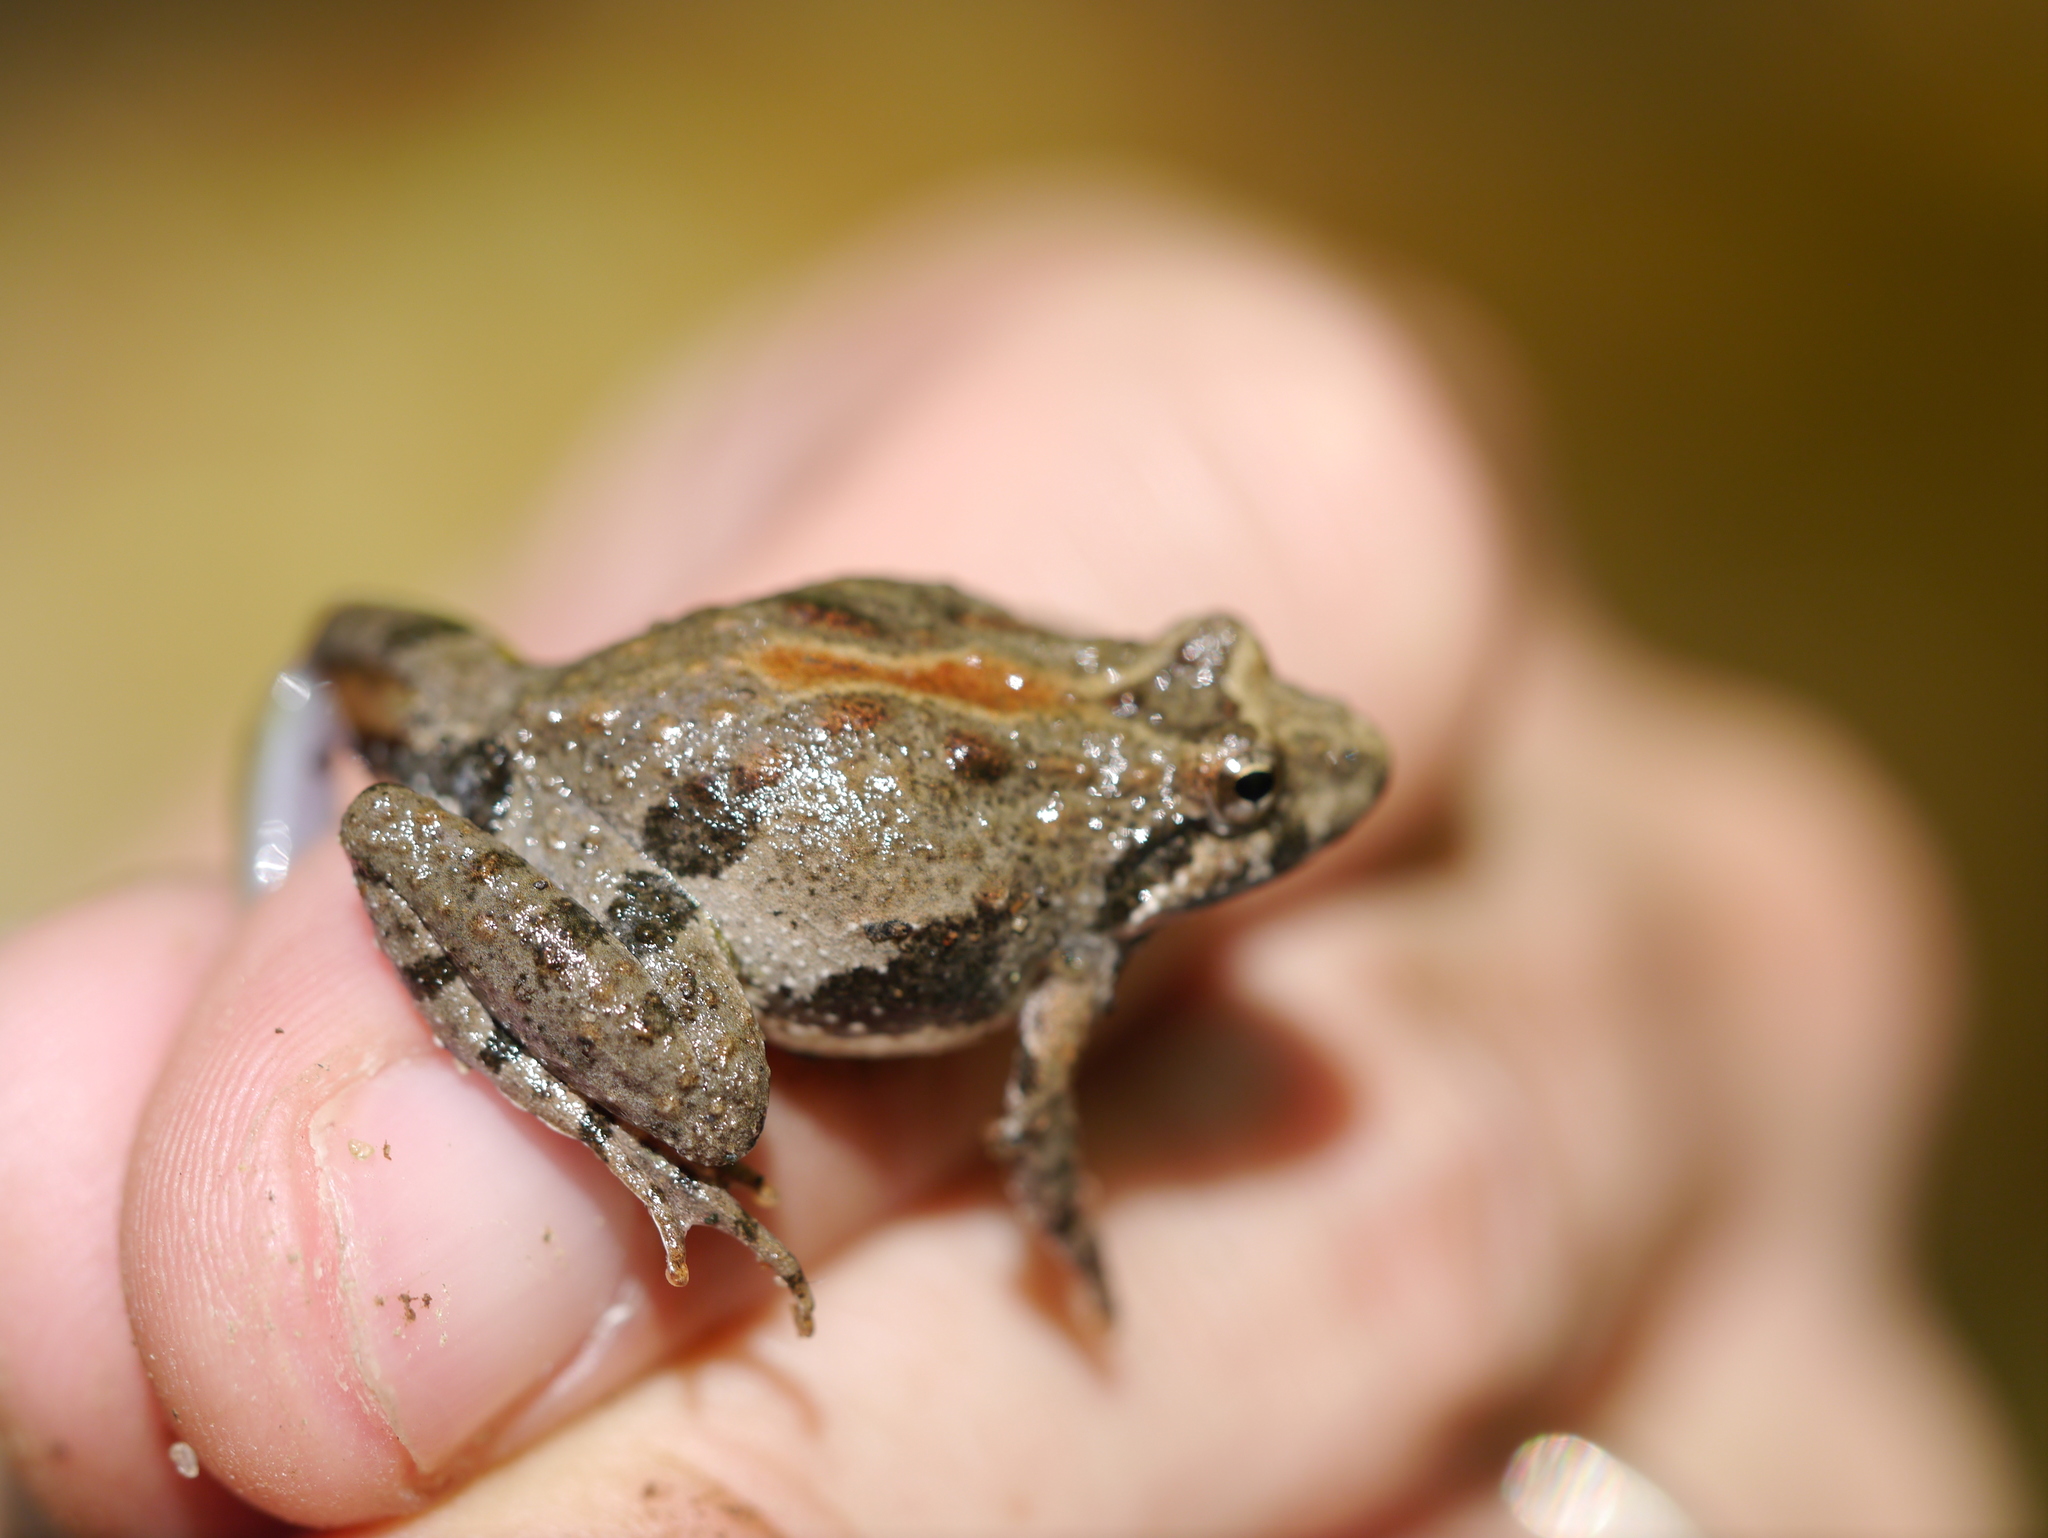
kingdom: Animalia
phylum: Chordata
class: Amphibia
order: Anura
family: Hylidae
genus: Acris
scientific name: Acris crepitans
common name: Northern cricket frog
